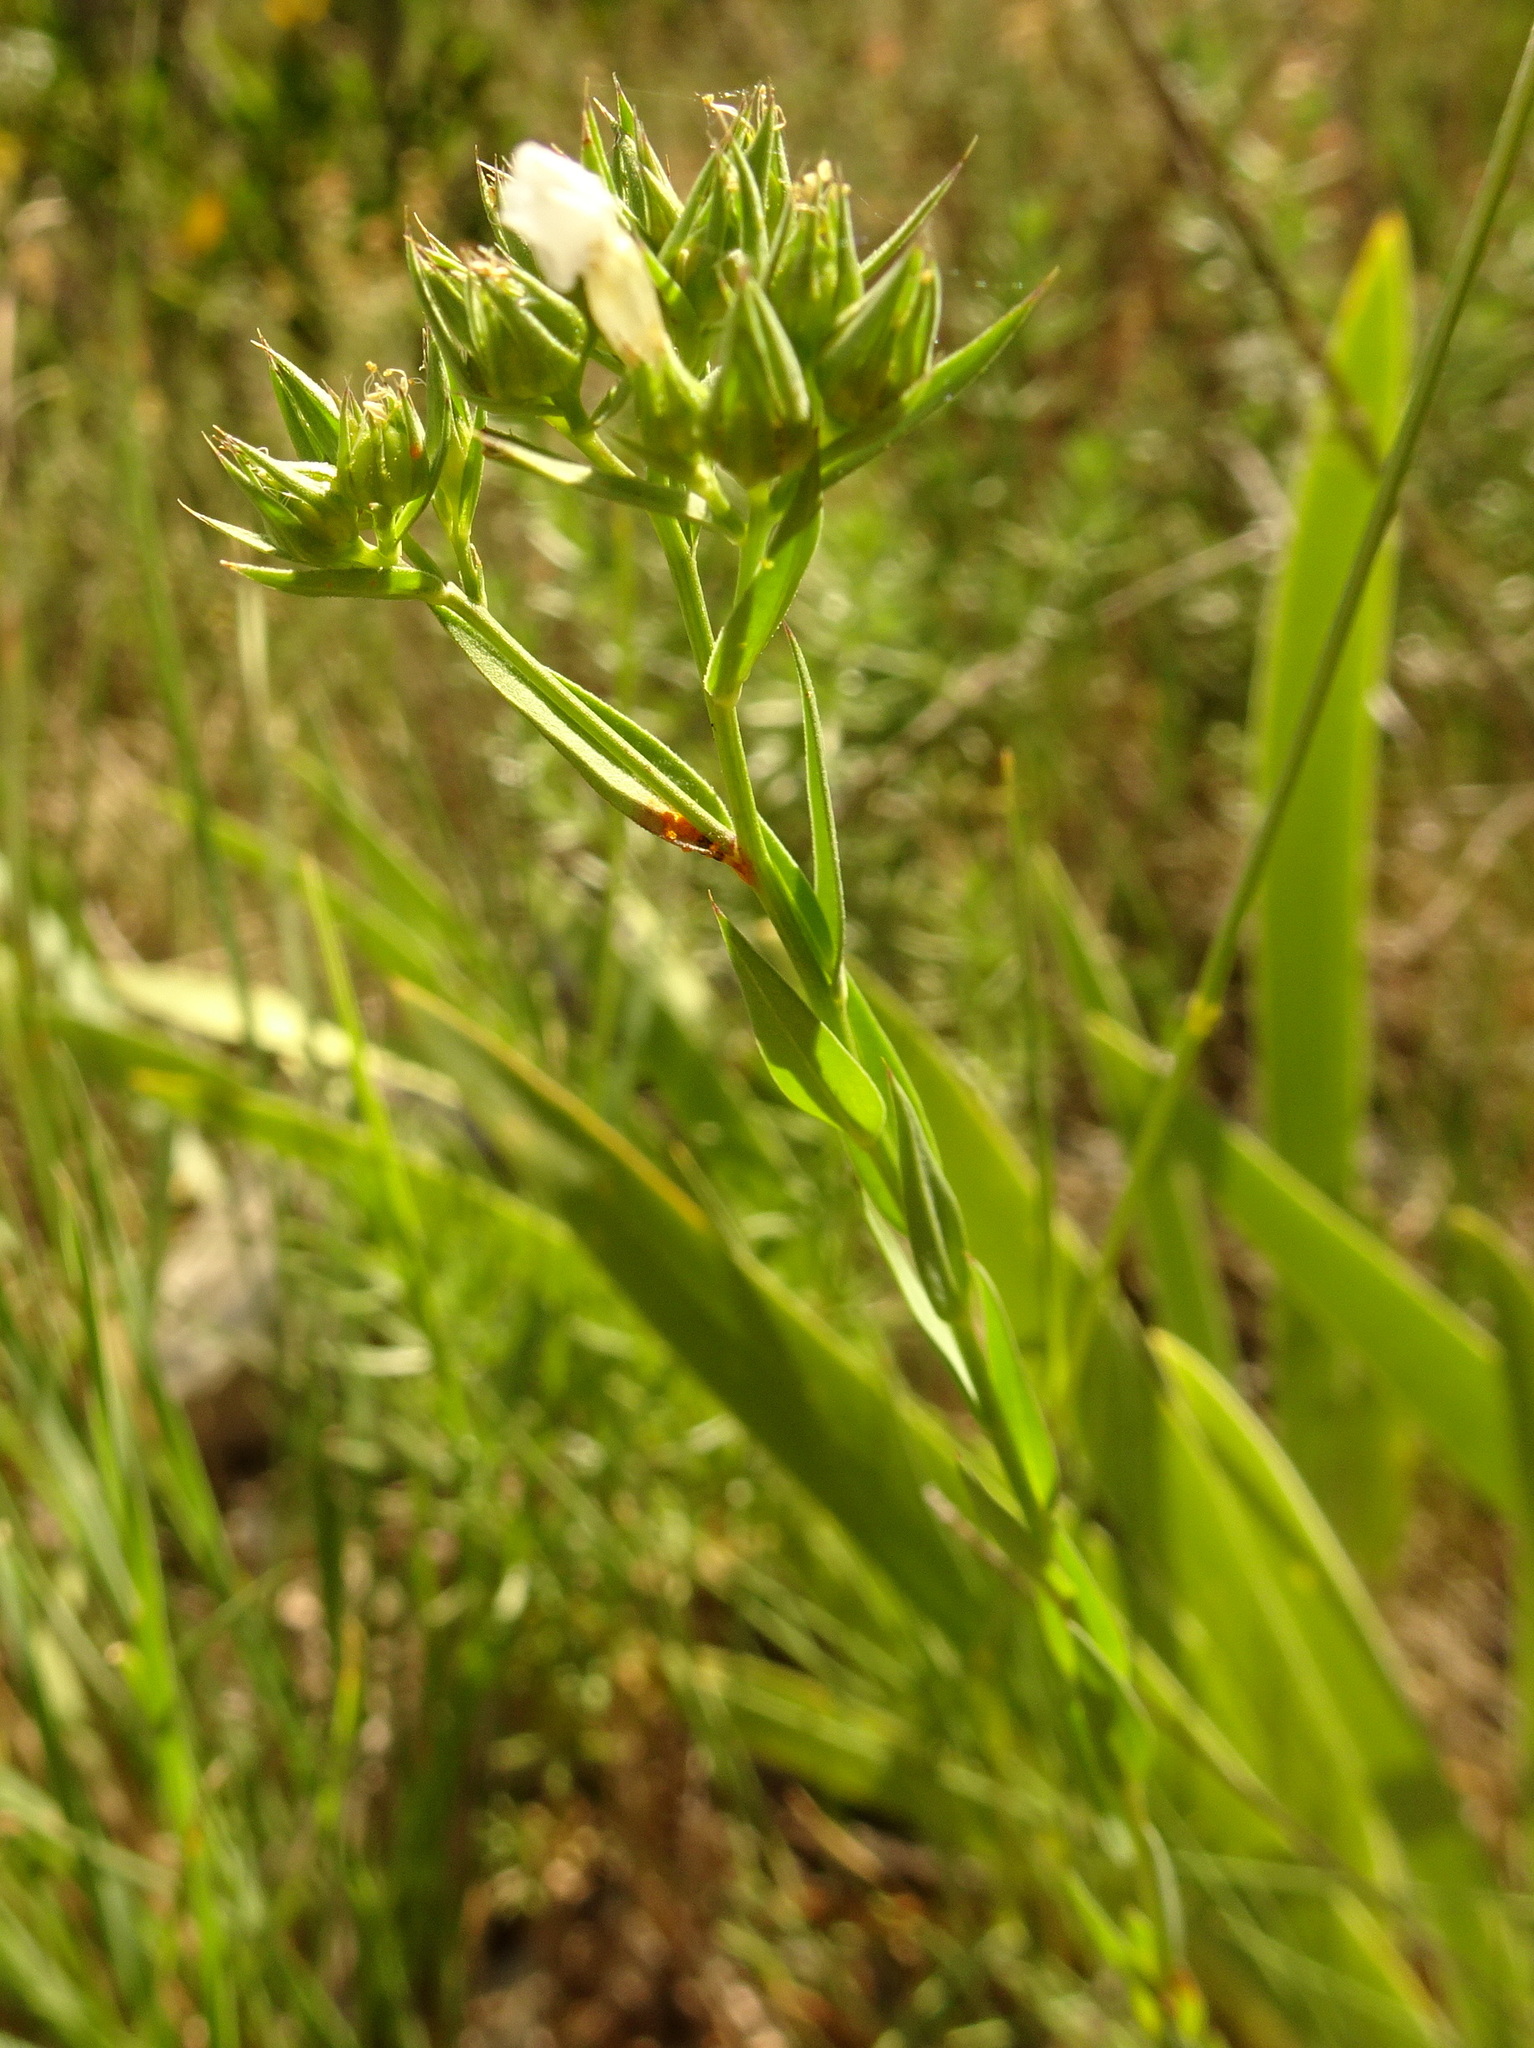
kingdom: Plantae
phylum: Tracheophyta
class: Magnoliopsida
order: Malpighiales
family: Linaceae
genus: Linum
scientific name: Linum strictum
